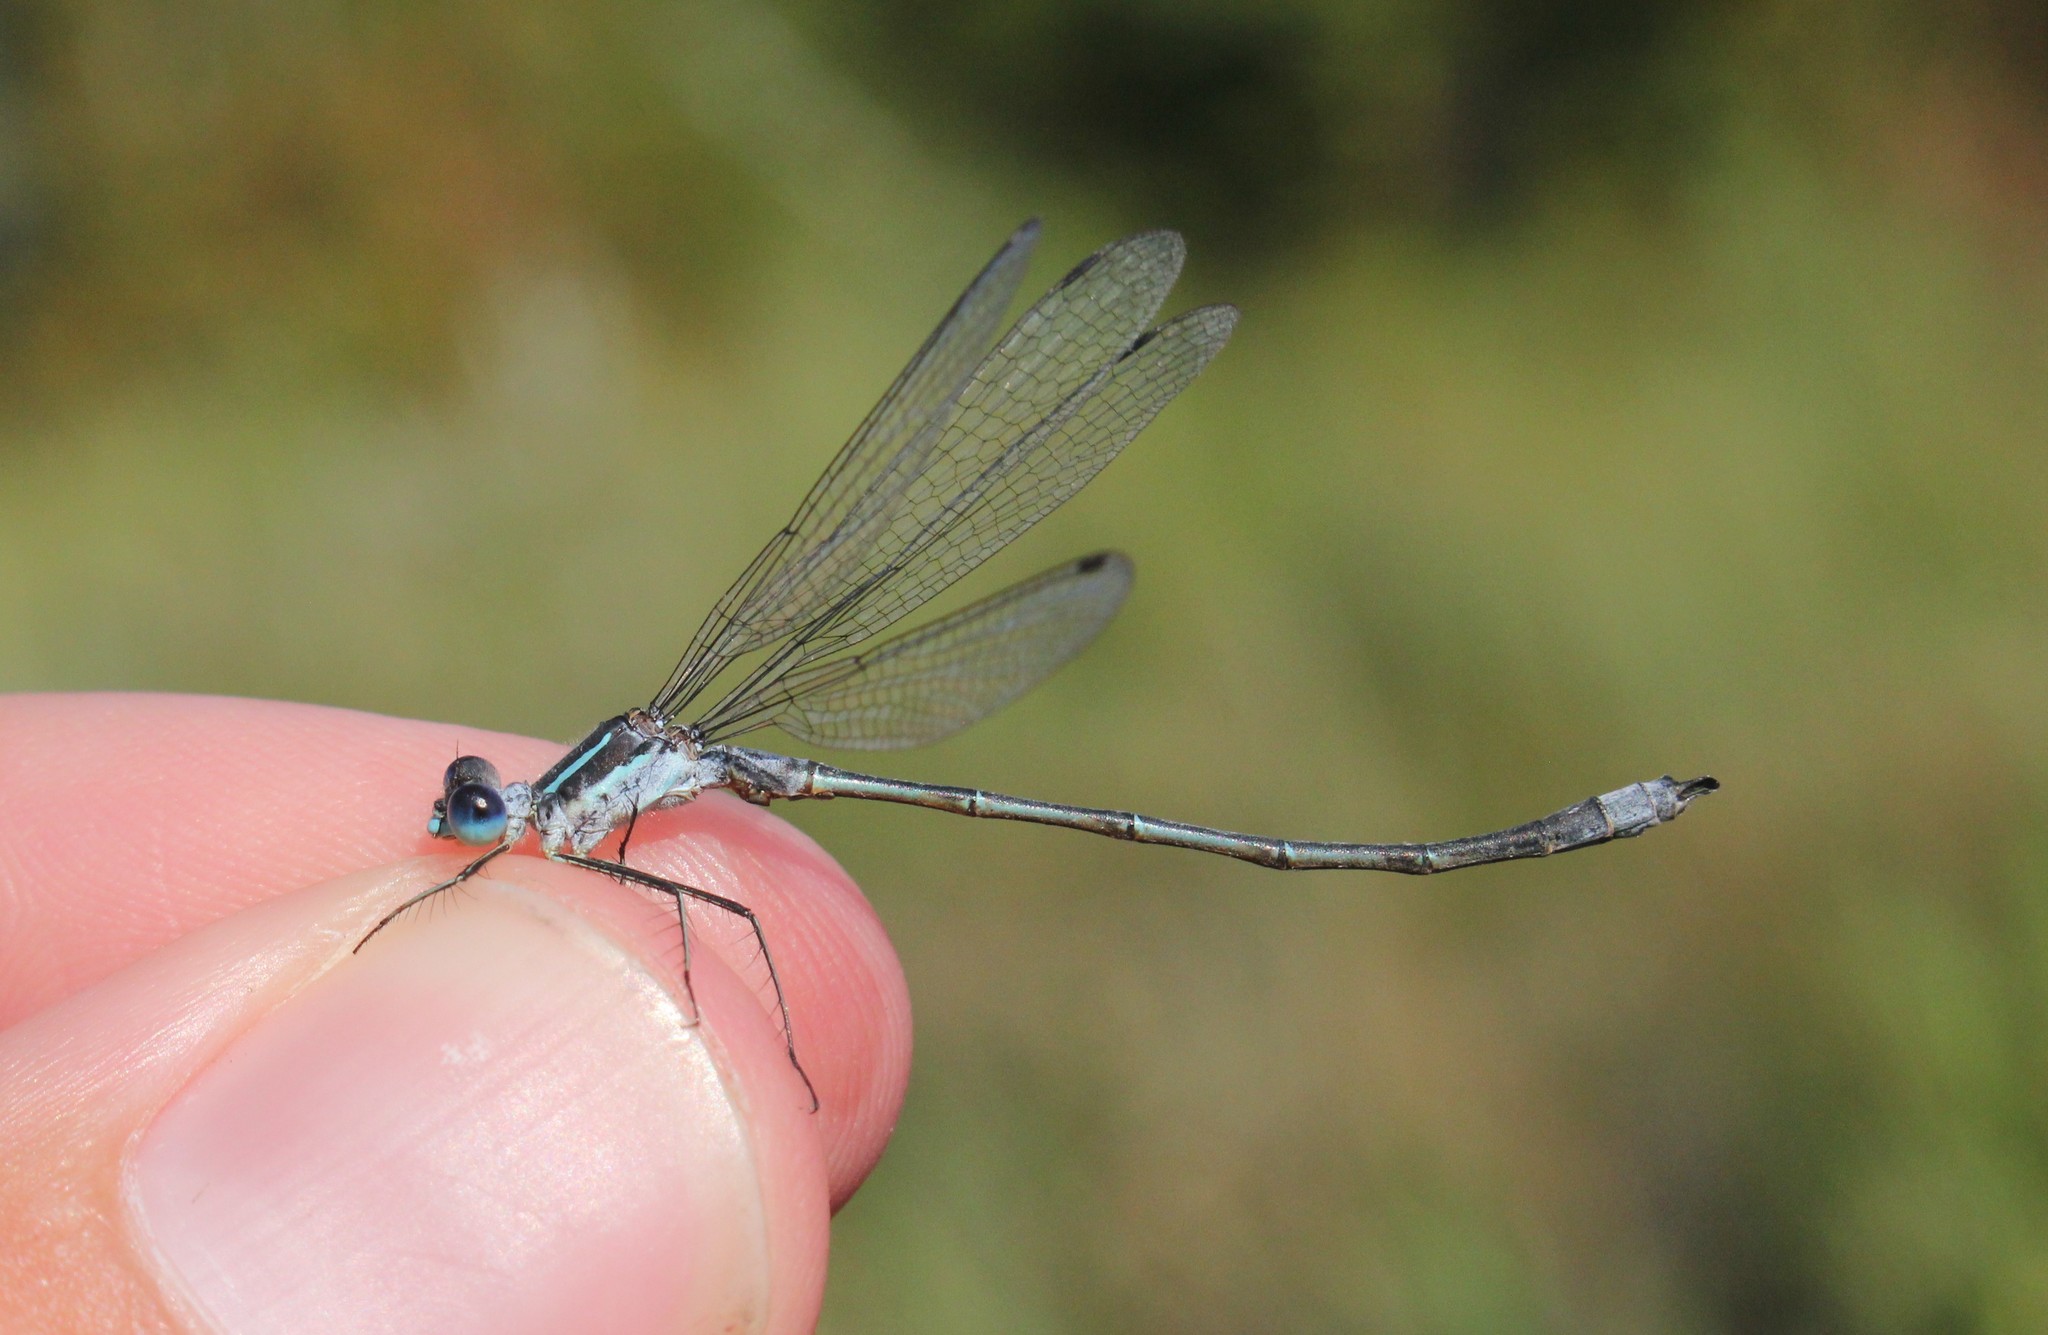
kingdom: Animalia
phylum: Arthropoda
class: Insecta
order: Odonata
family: Lestidae
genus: Lestes
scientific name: Lestes disjunctus
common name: Northern spreadwing
